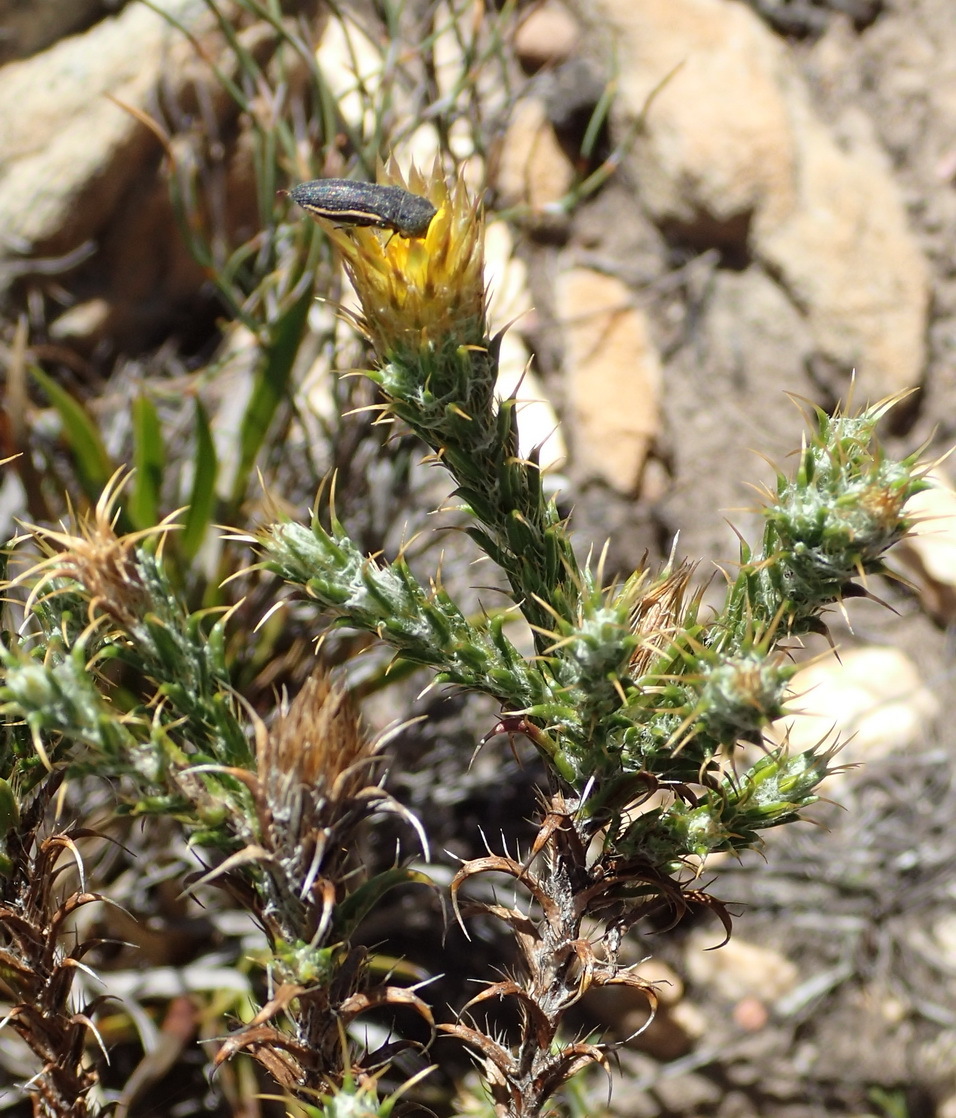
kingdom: Plantae
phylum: Tracheophyta
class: Magnoliopsida
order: Asterales
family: Asteraceae
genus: Cullumia
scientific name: Cullumia bisulca
